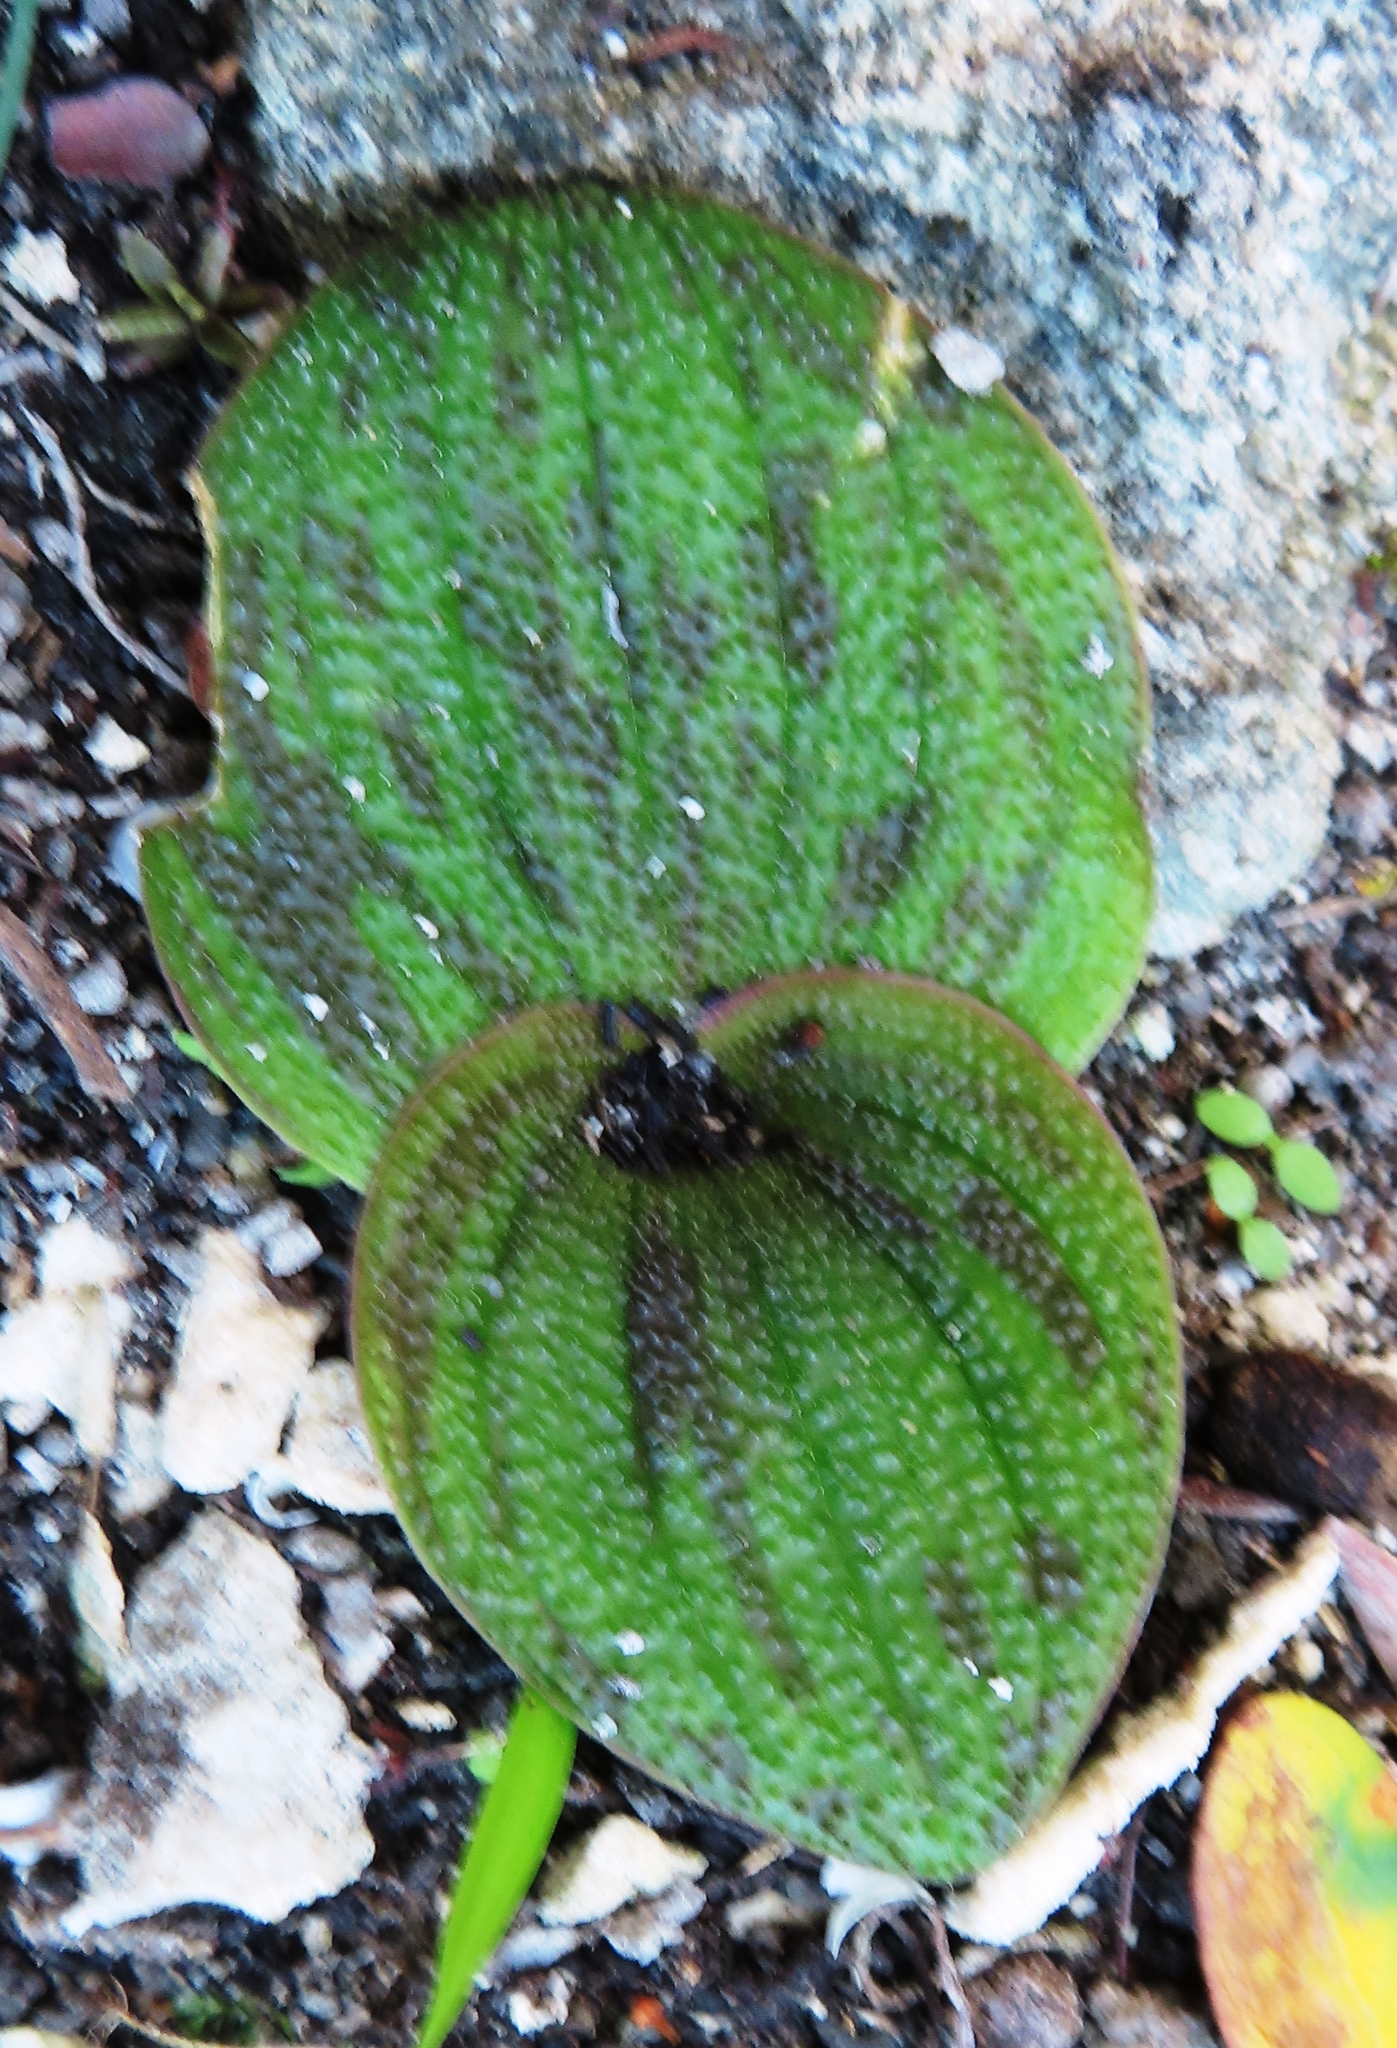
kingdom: Plantae
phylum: Tracheophyta
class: Liliopsida
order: Asparagales
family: Asparagaceae
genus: Massonia
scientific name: Massonia longipes
